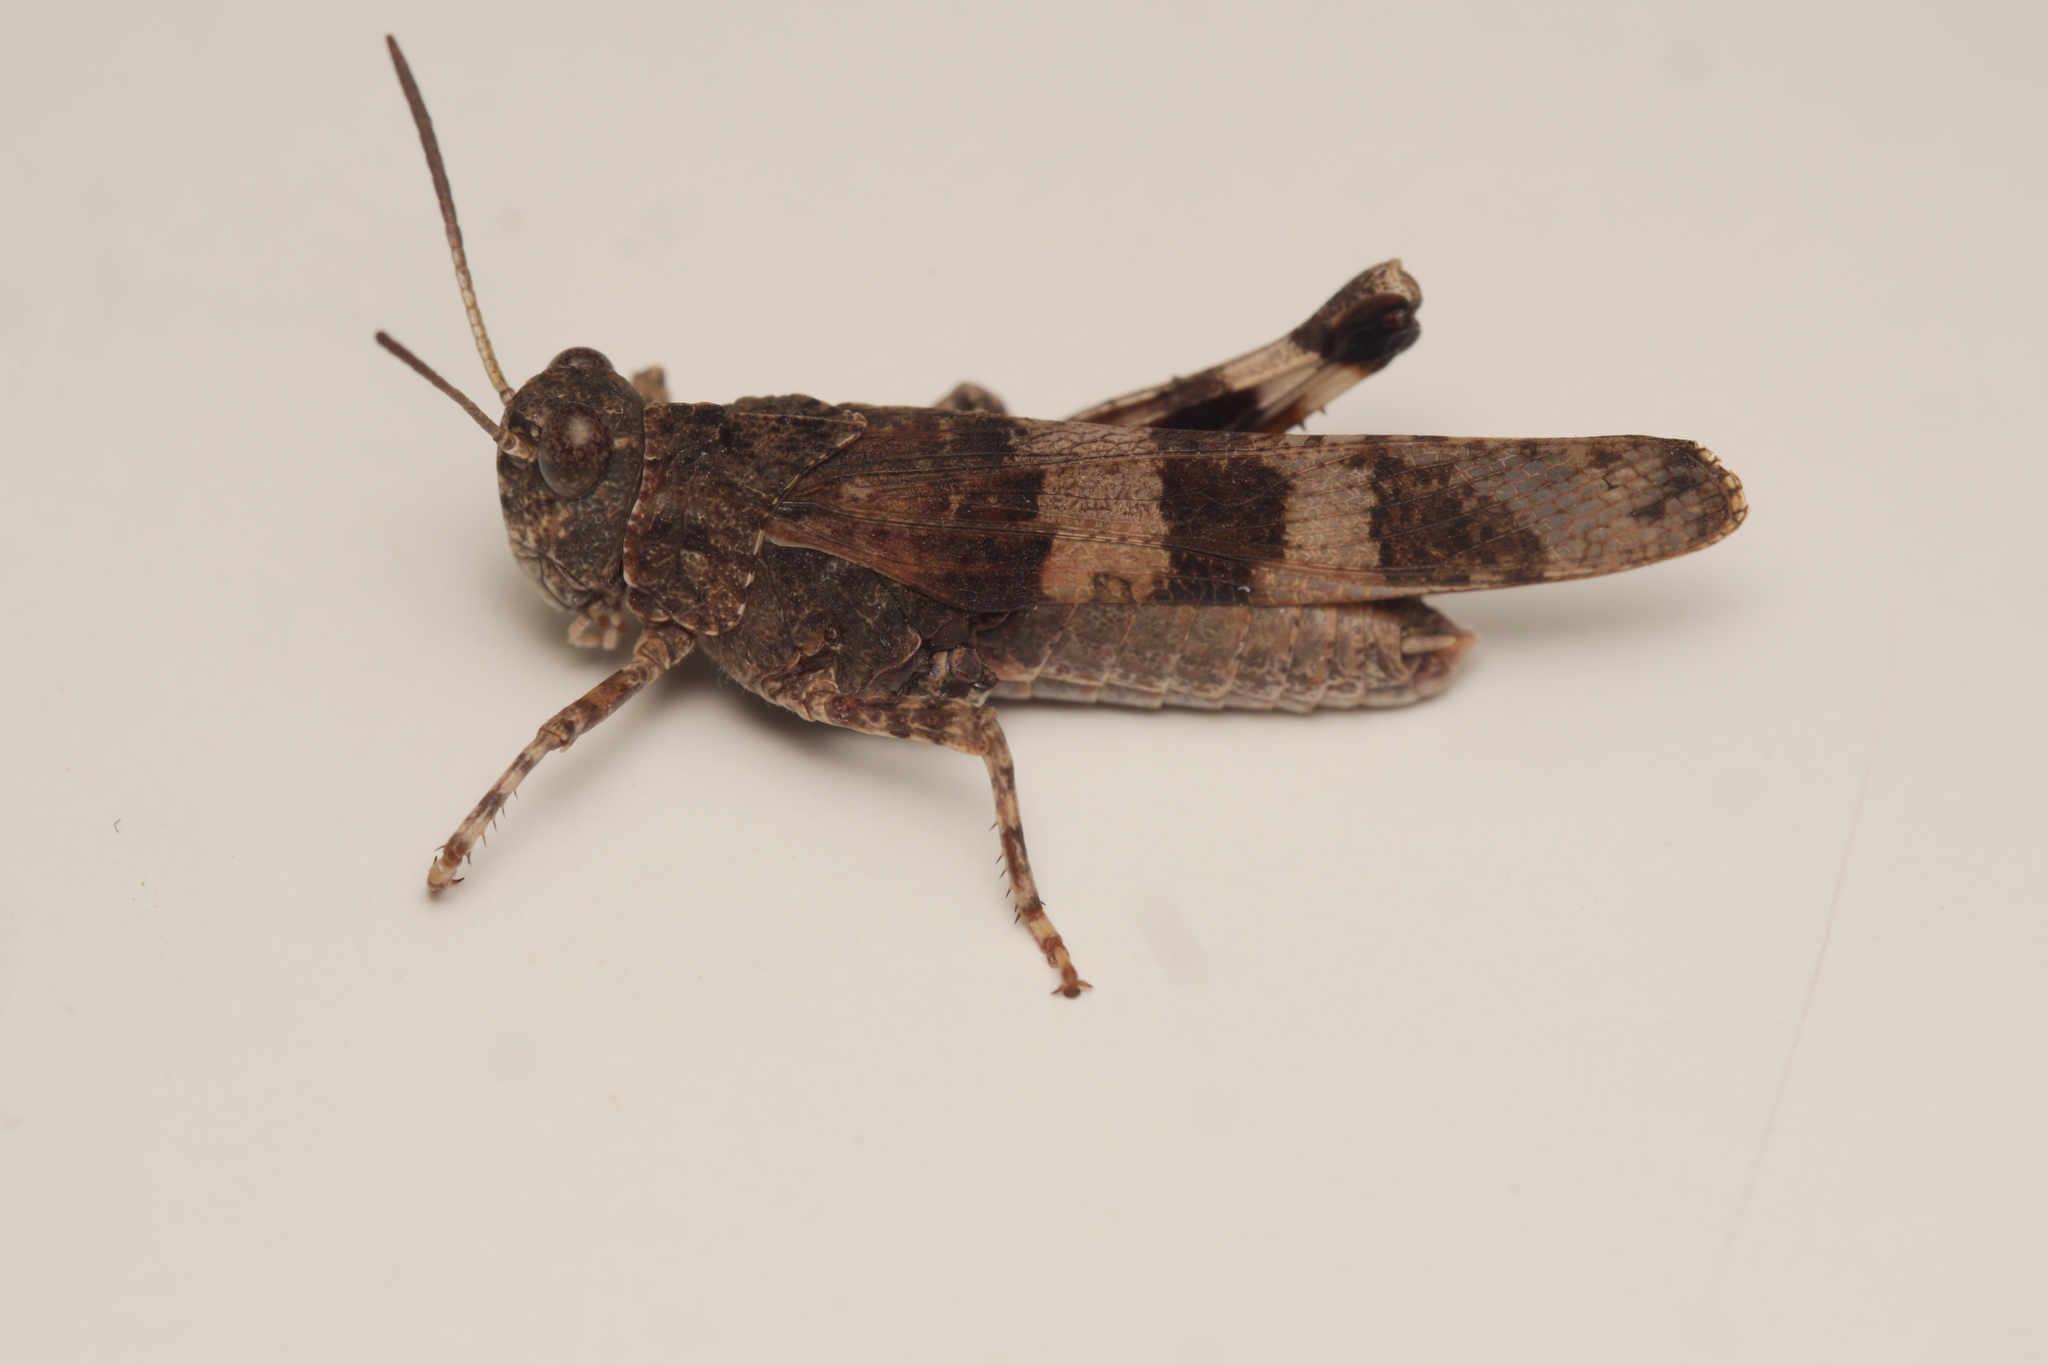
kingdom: Animalia
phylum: Arthropoda
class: Insecta
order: Orthoptera
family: Acrididae
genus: Oedipoda
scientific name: Oedipoda caerulescens
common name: Blue-winged grasshopper
